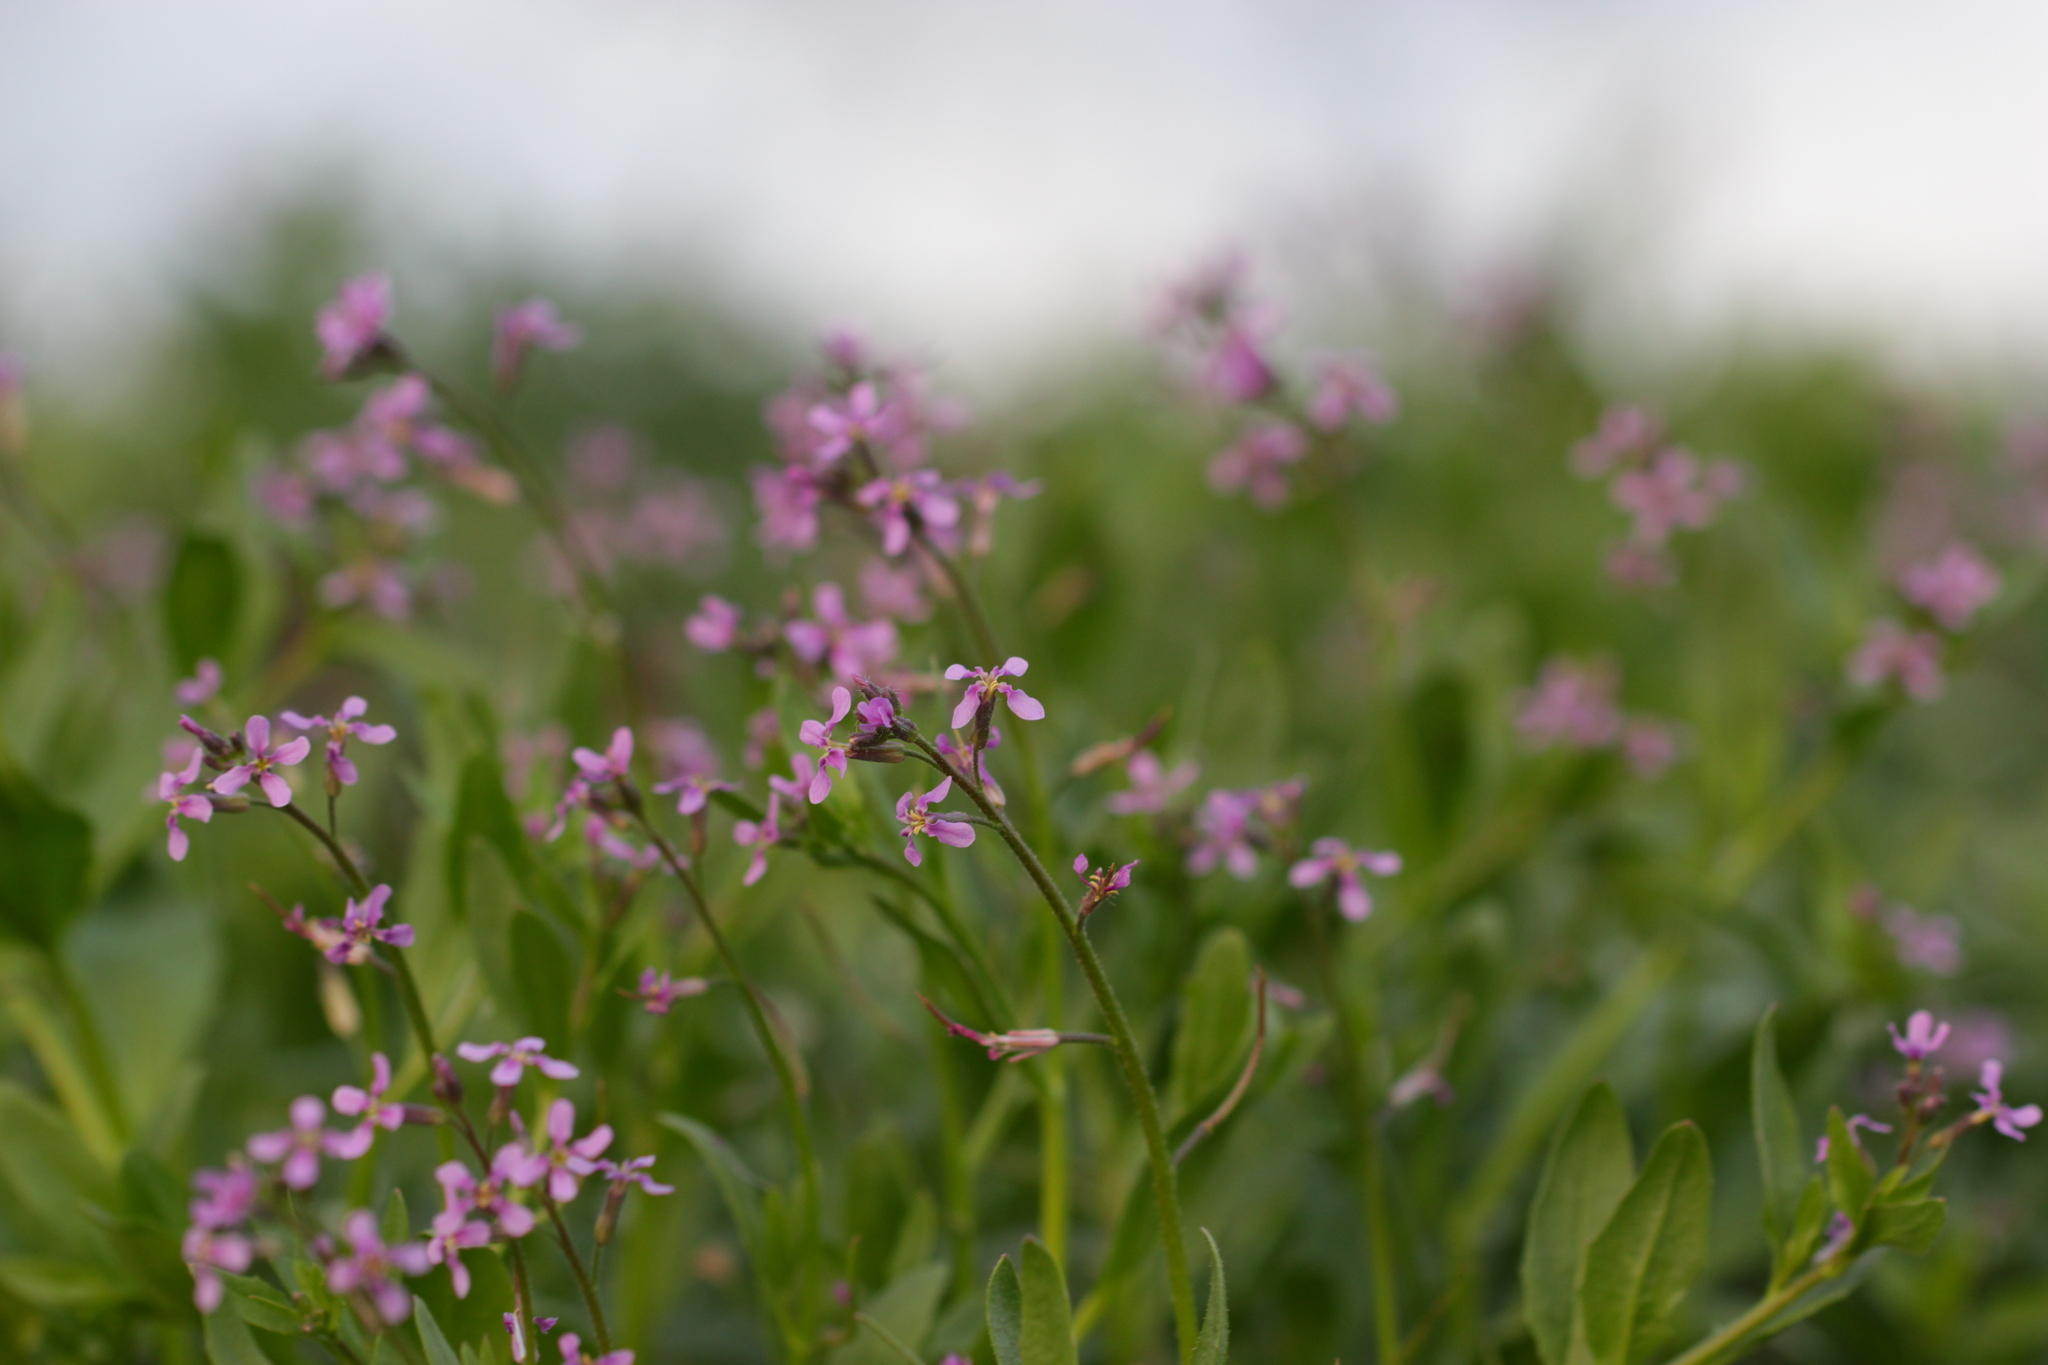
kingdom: Plantae
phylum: Tracheophyta
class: Magnoliopsida
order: Brassicales
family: Brassicaceae
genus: Chorispora
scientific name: Chorispora tenella
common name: Crossflower
